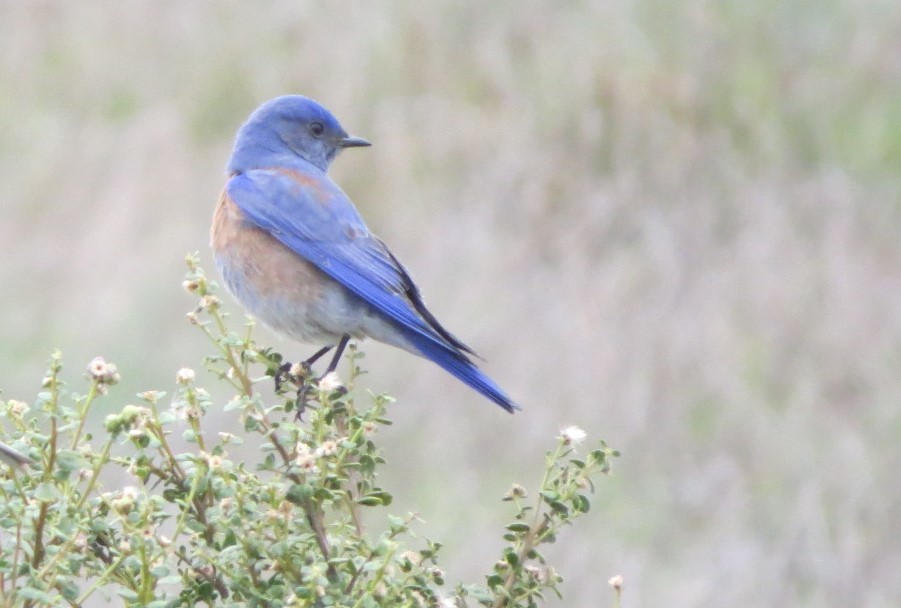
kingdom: Animalia
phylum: Chordata
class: Aves
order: Passeriformes
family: Turdidae
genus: Sialia
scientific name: Sialia mexicana
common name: Western bluebird
